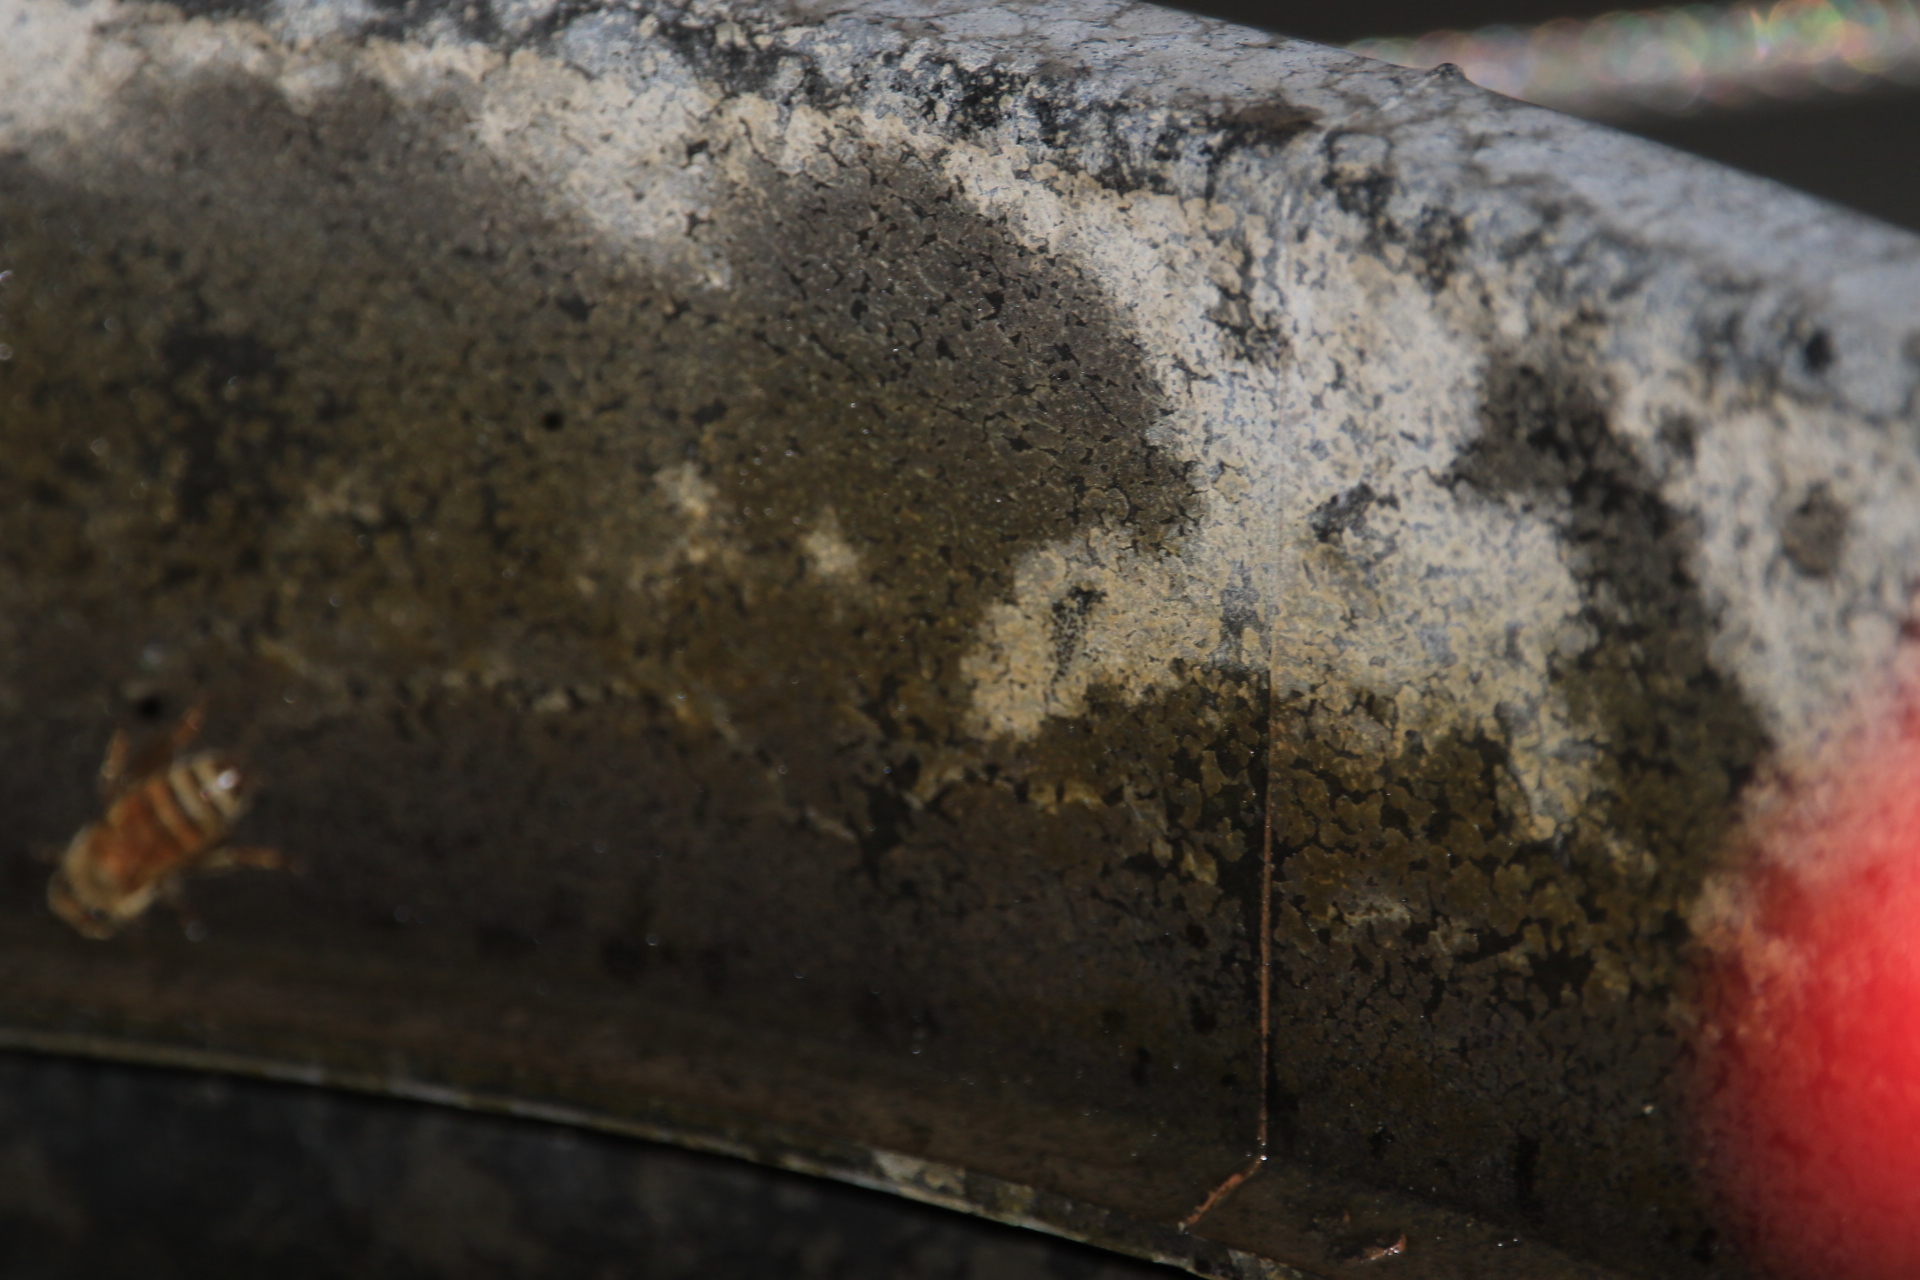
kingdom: Animalia
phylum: Arthropoda
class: Insecta
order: Hymenoptera
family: Apidae
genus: Apis
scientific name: Apis mellifera
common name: Honey bee
